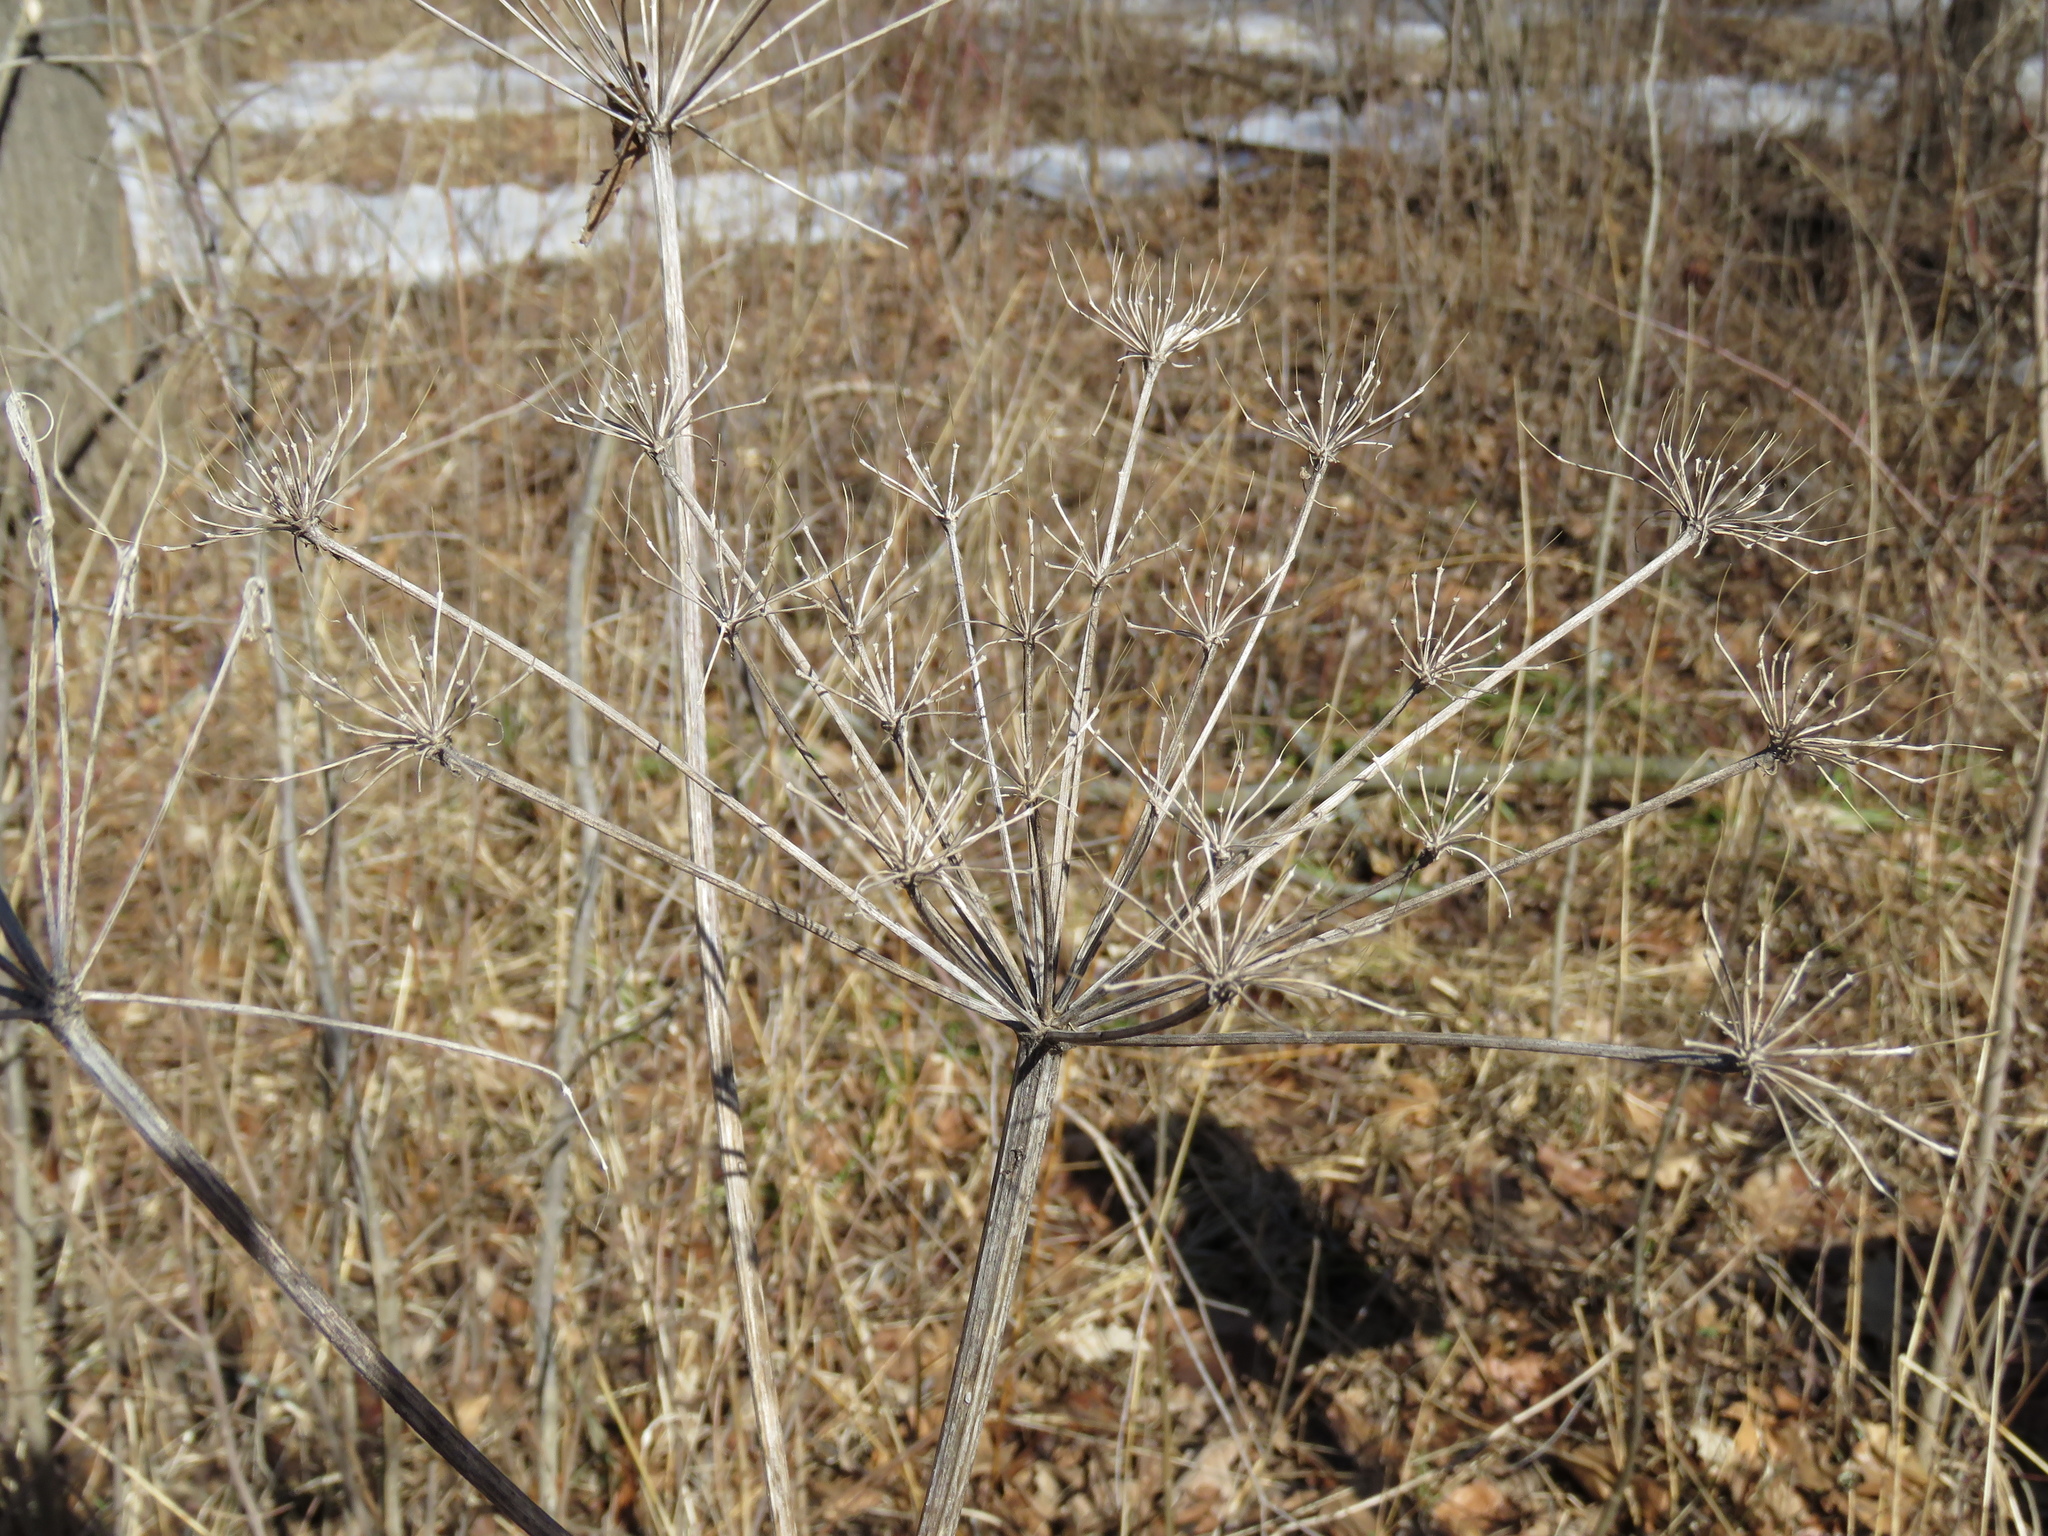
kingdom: Plantae
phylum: Tracheophyta
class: Magnoliopsida
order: Apiales
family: Apiaceae
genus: Heracleum
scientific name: Heracleum maximum
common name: American cow parsnip
